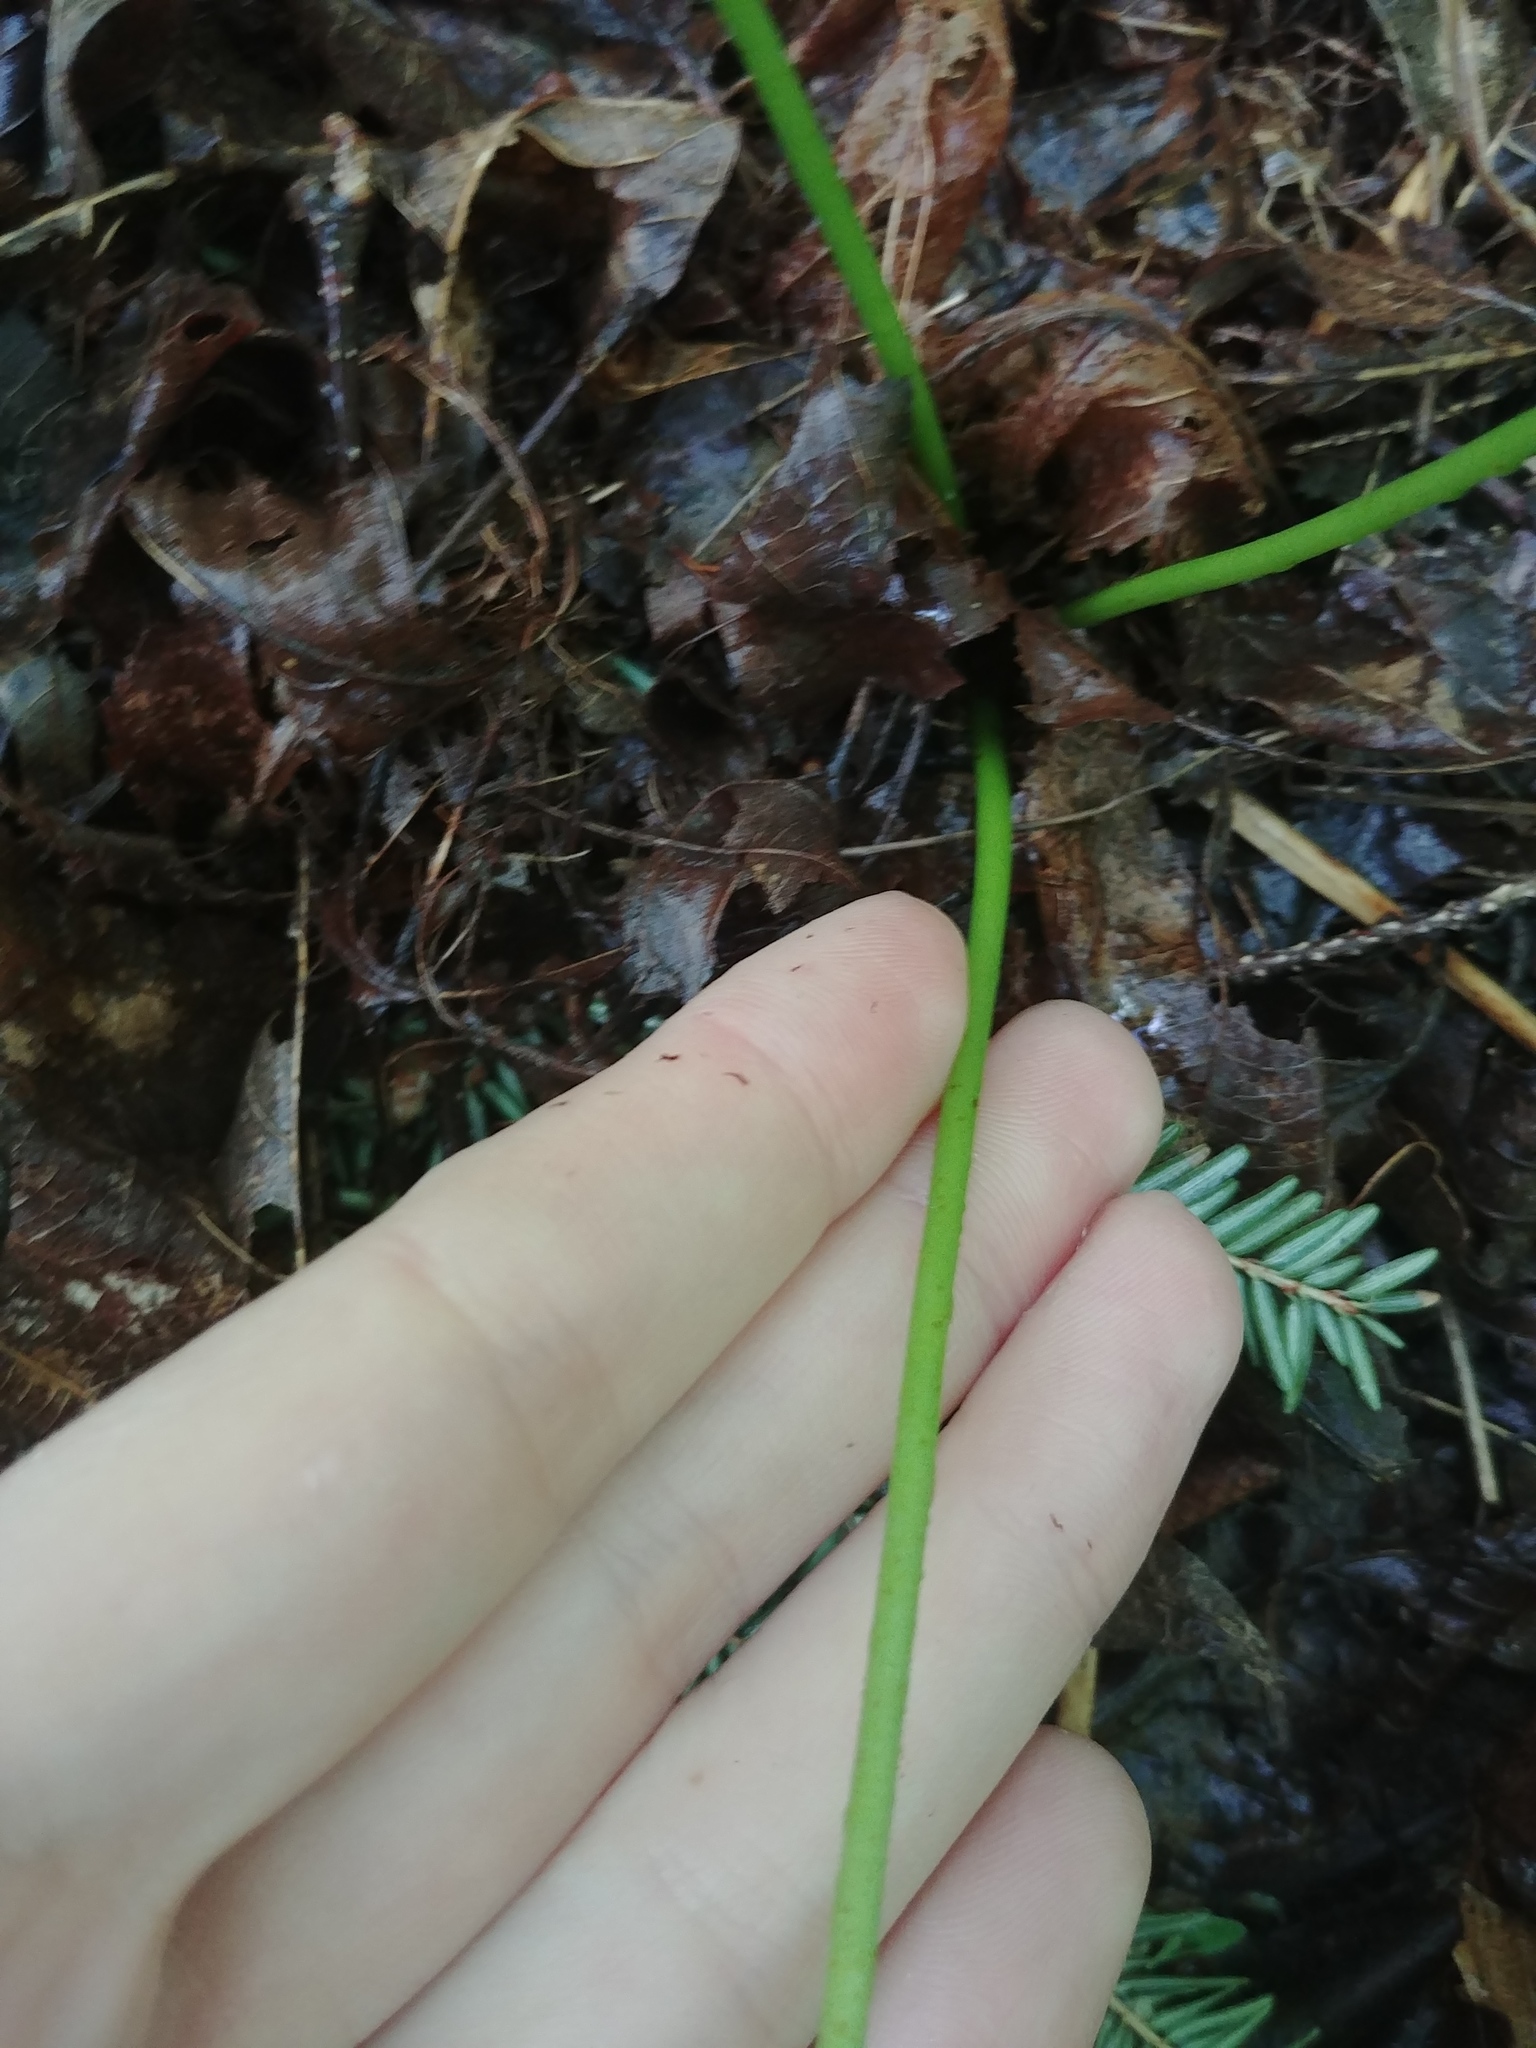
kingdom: Plantae
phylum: Tracheophyta
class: Polypodiopsida
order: Osmundales
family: Osmundaceae
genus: Claytosmunda
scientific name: Claytosmunda claytoniana
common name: Clayton's fern
